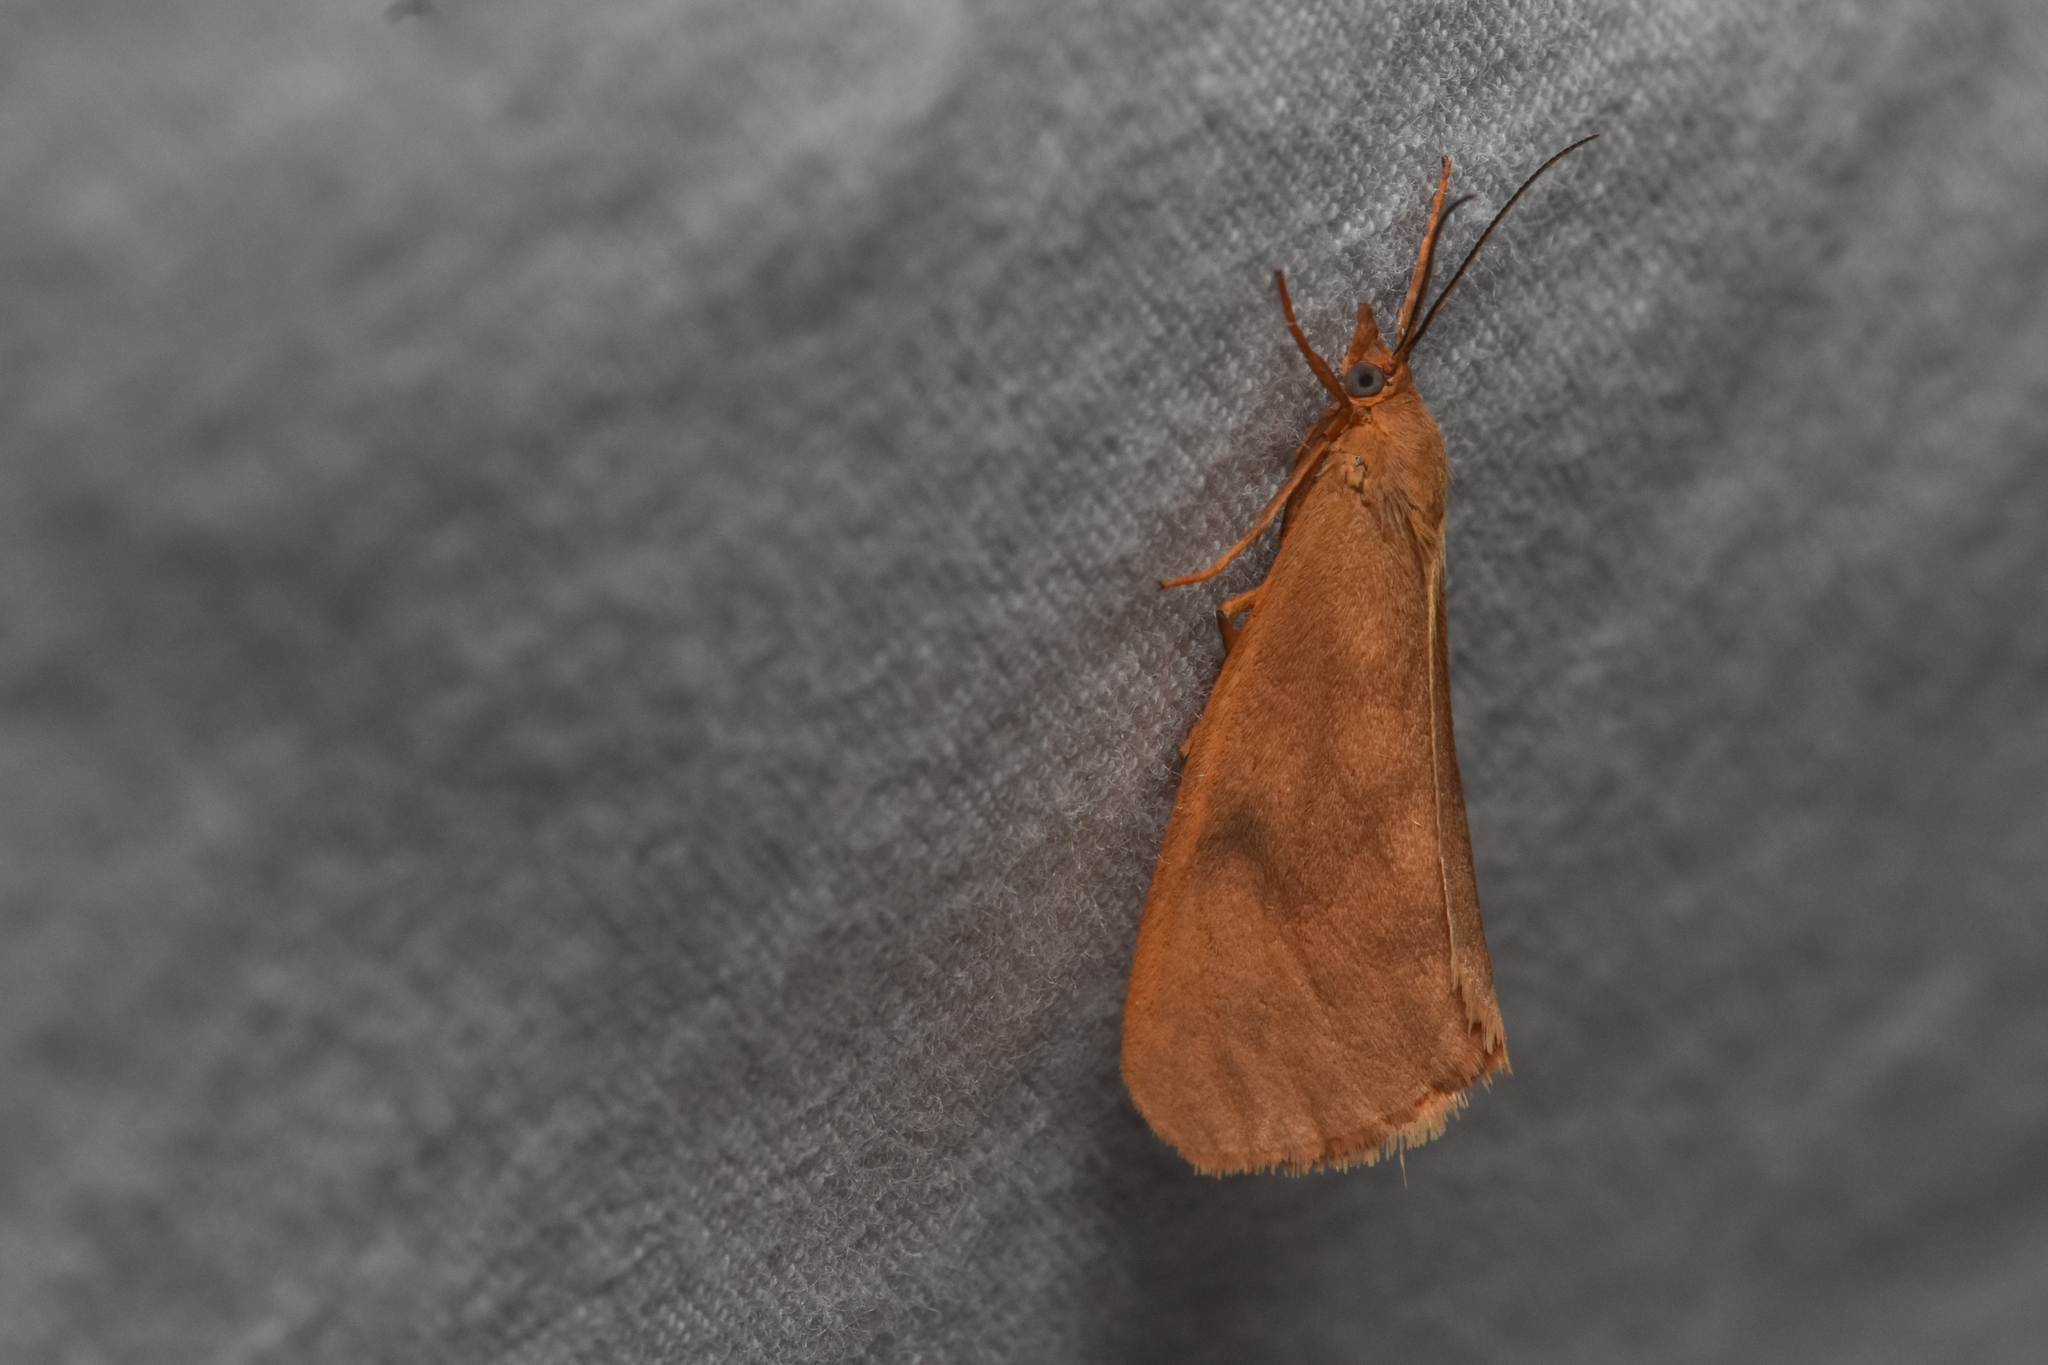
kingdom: Animalia
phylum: Arthropoda
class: Insecta
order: Lepidoptera
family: Erebidae
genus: Virbia
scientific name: Virbia ferruginosa
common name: Rusty virbia moth
